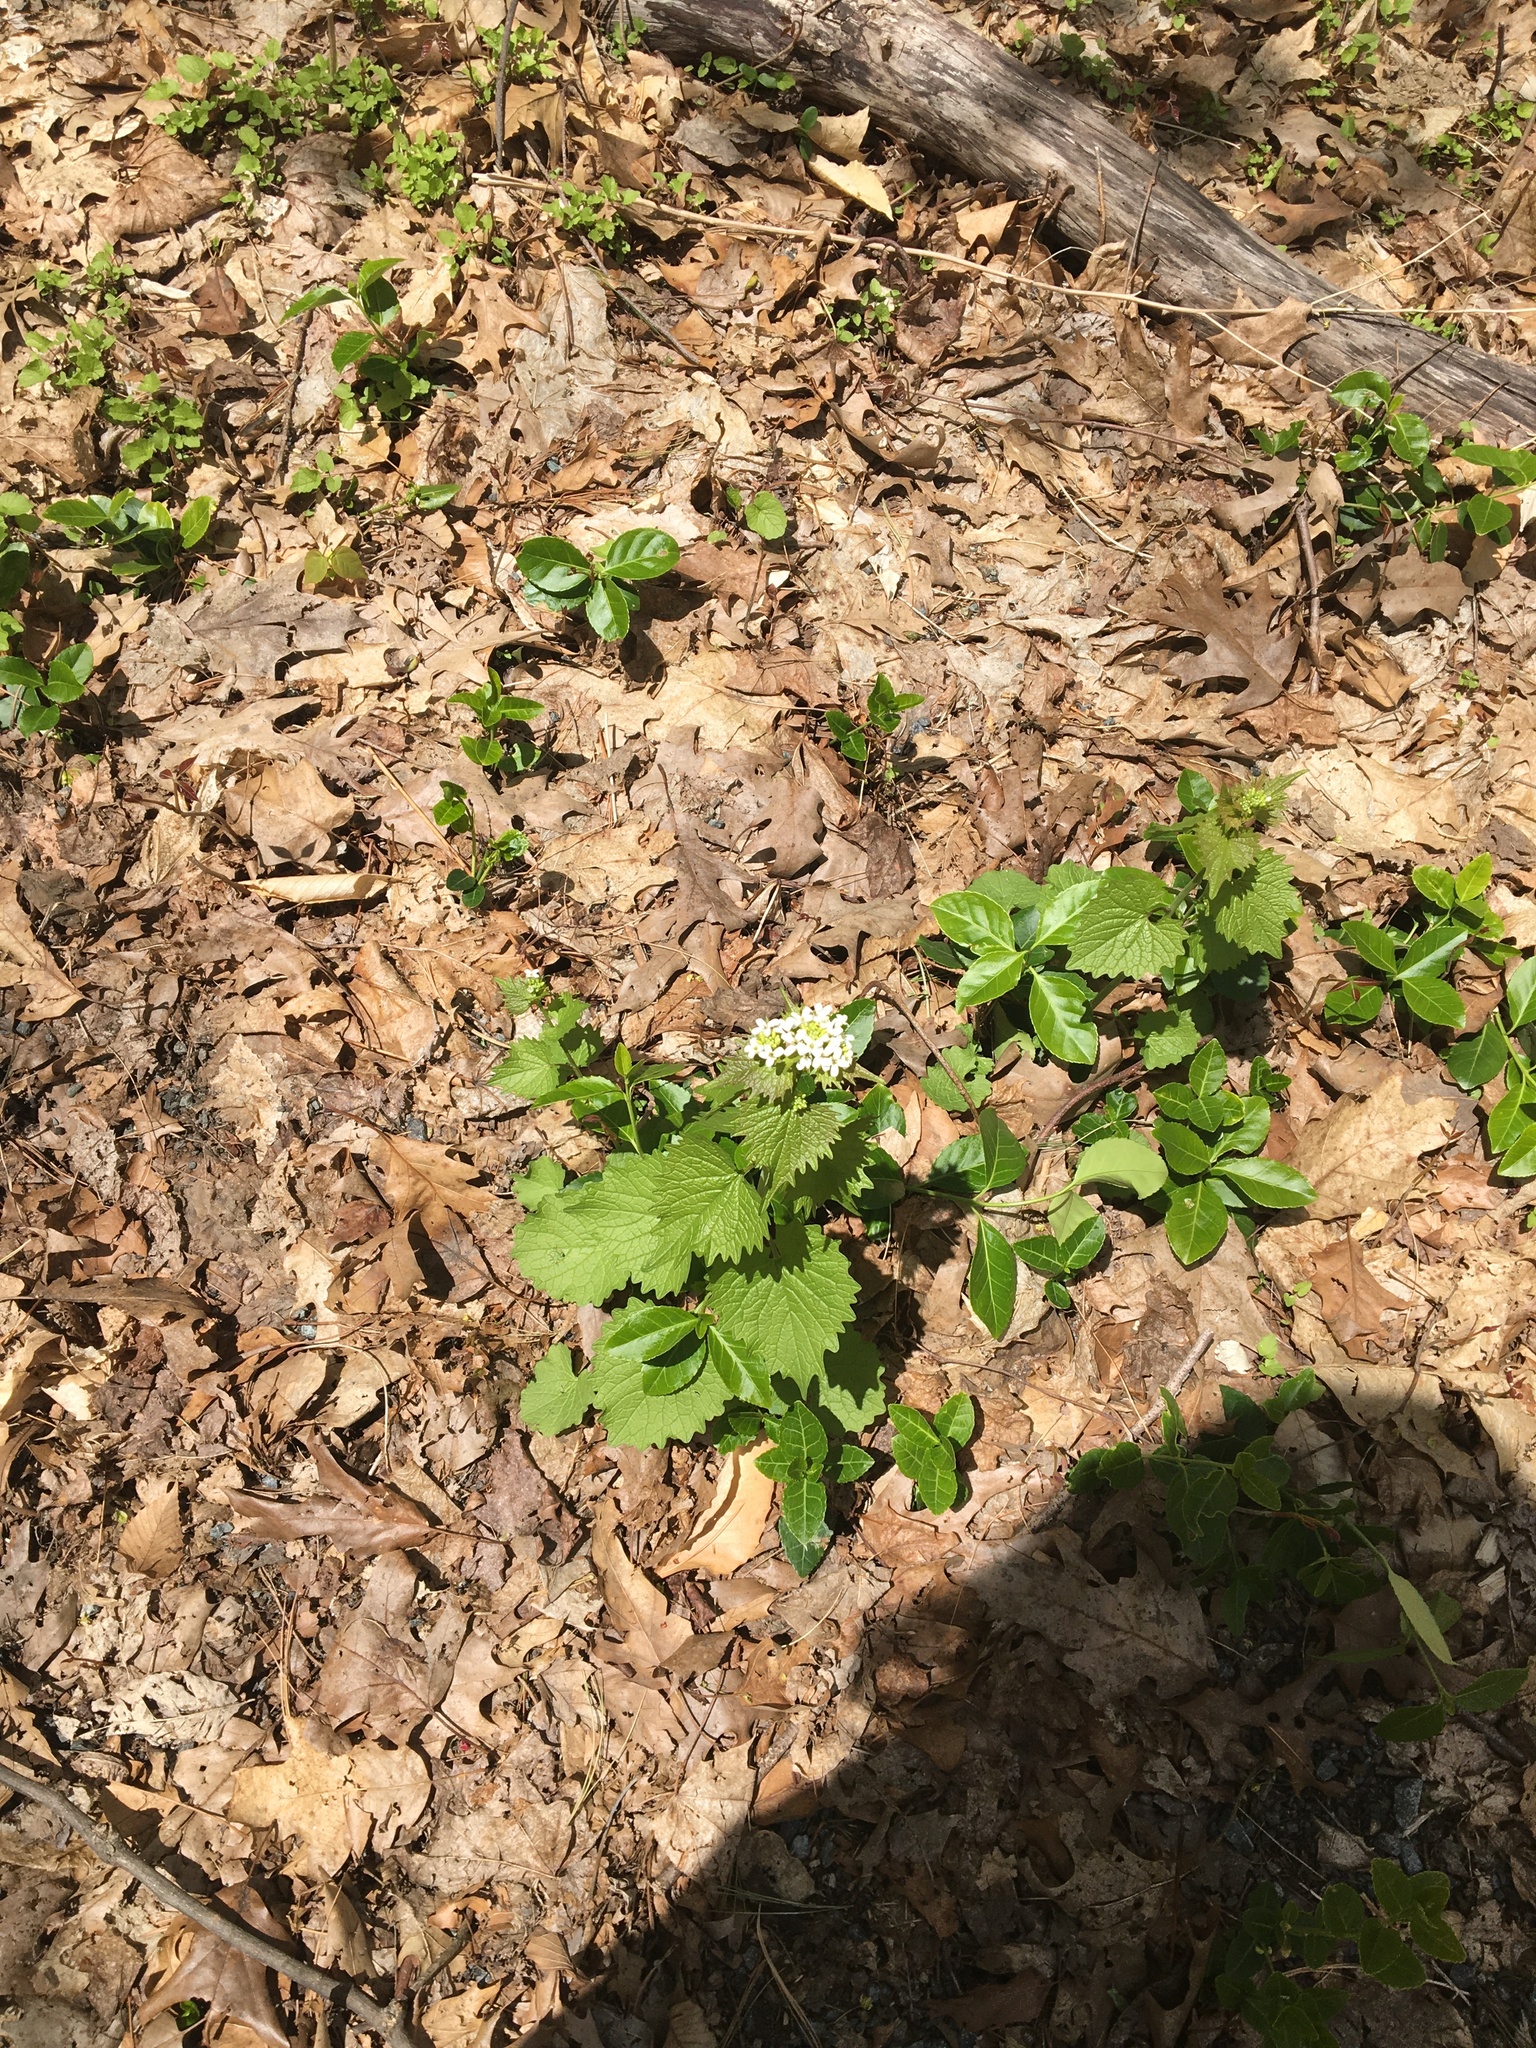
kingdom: Plantae
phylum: Tracheophyta
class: Magnoliopsida
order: Brassicales
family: Brassicaceae
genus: Alliaria
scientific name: Alliaria petiolata
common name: Garlic mustard
